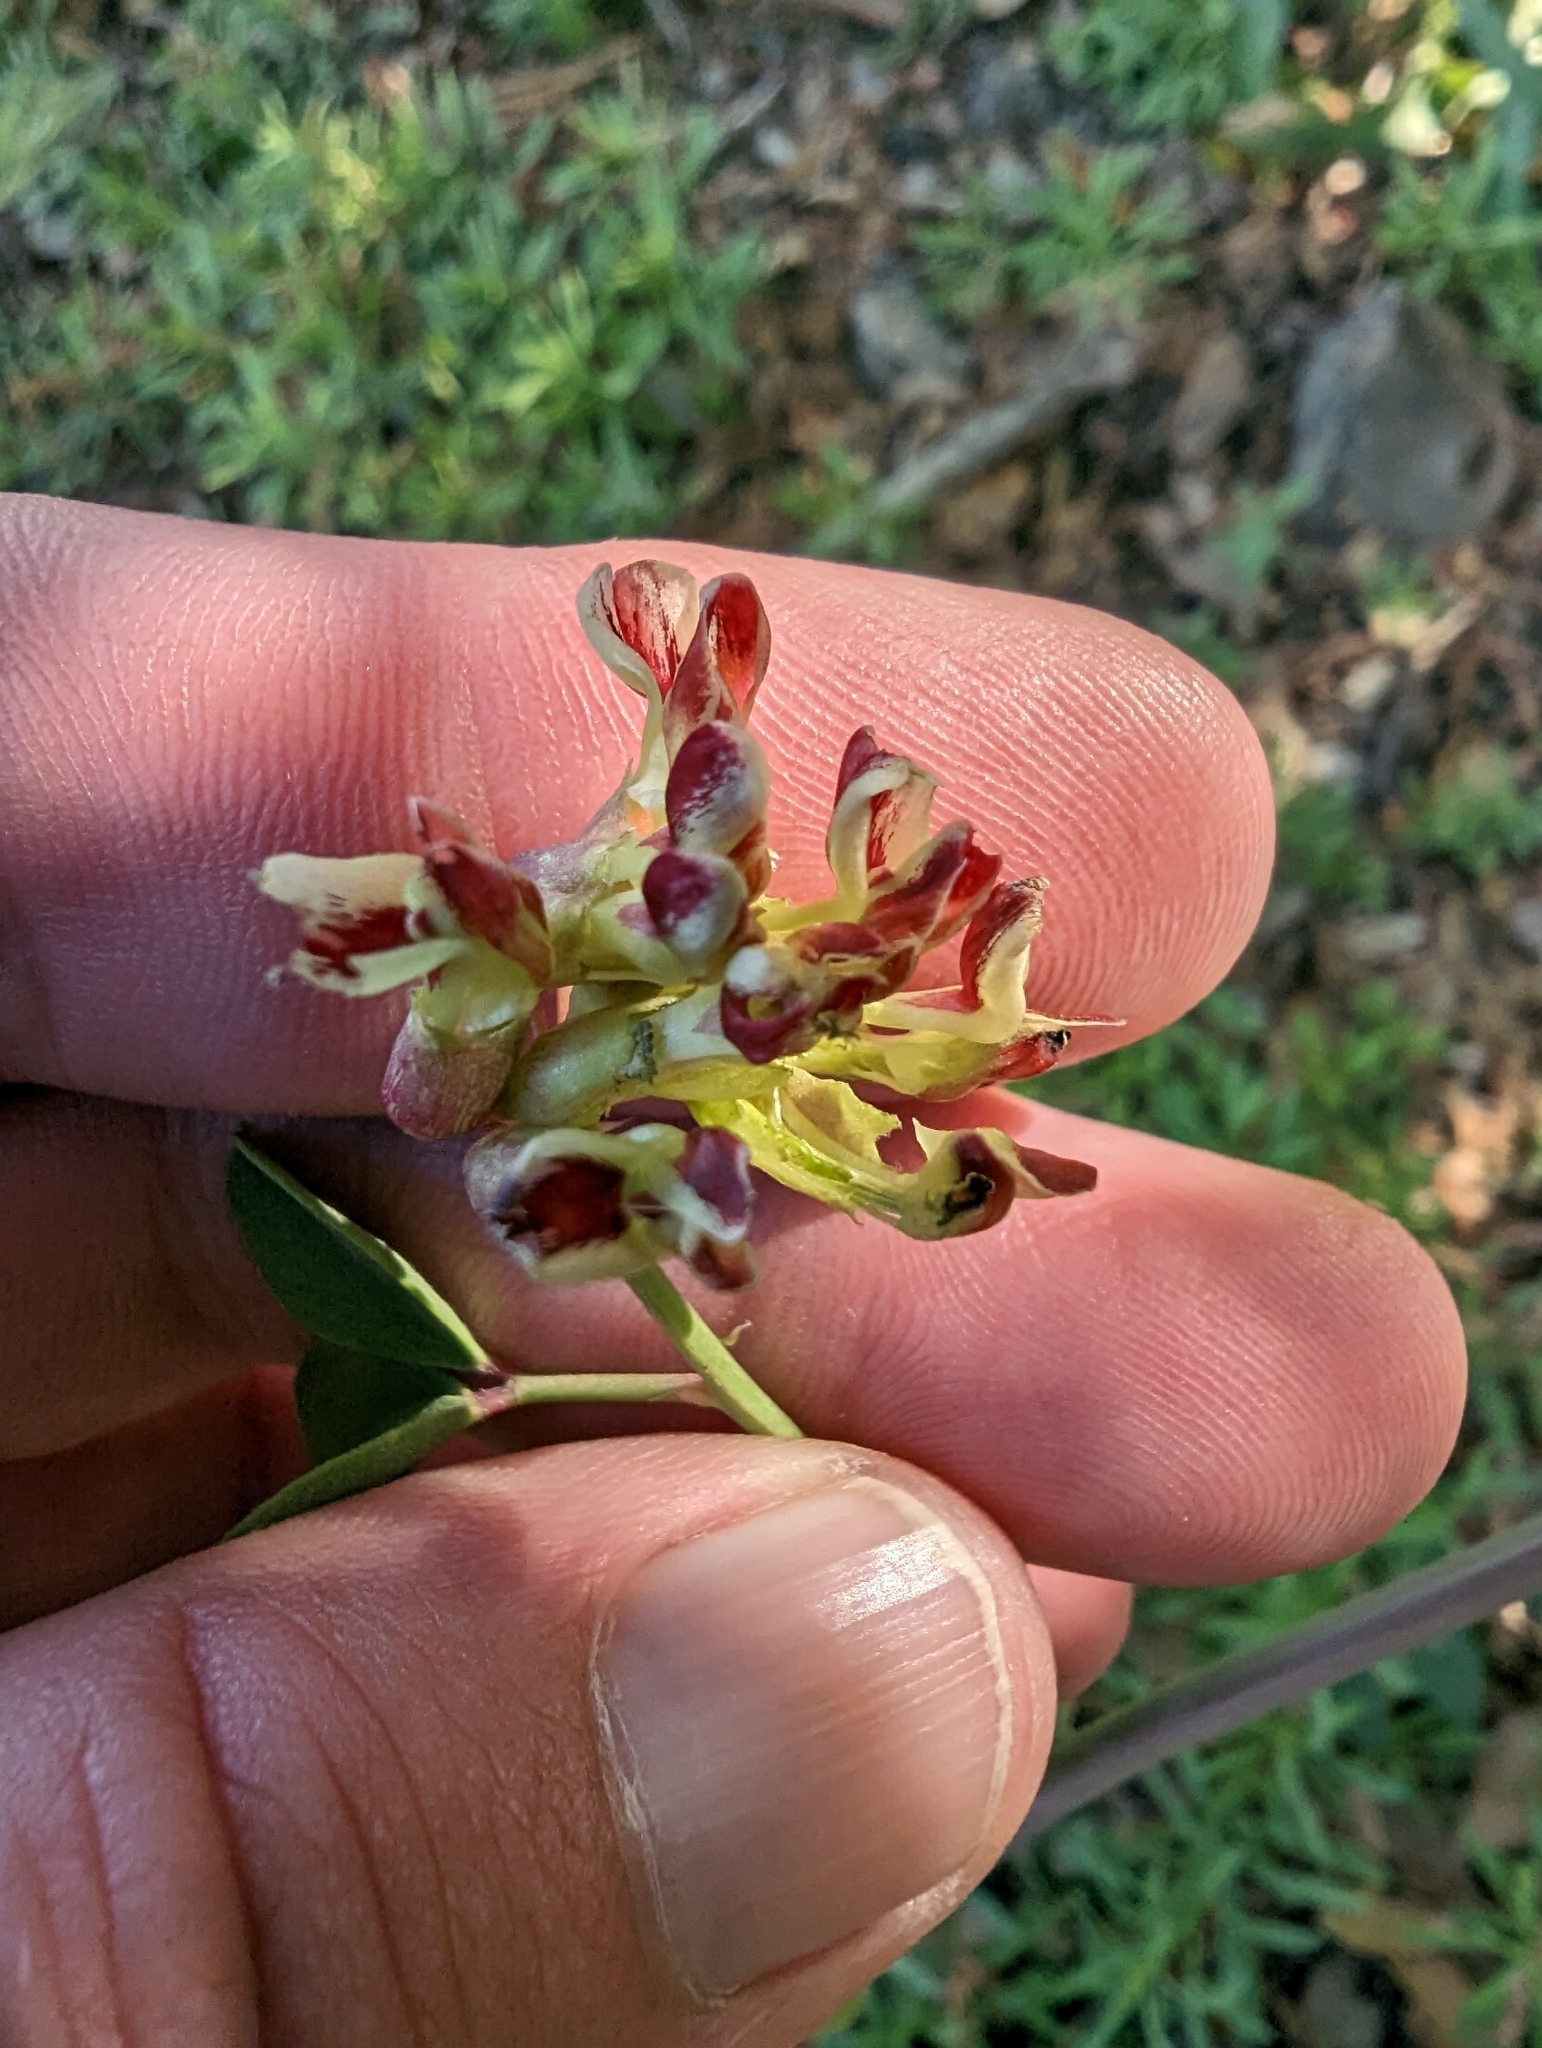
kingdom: Plantae
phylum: Tracheophyta
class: Magnoliopsida
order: Fabales
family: Fabaceae
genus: Hosackia
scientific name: Hosackia crassifolia
